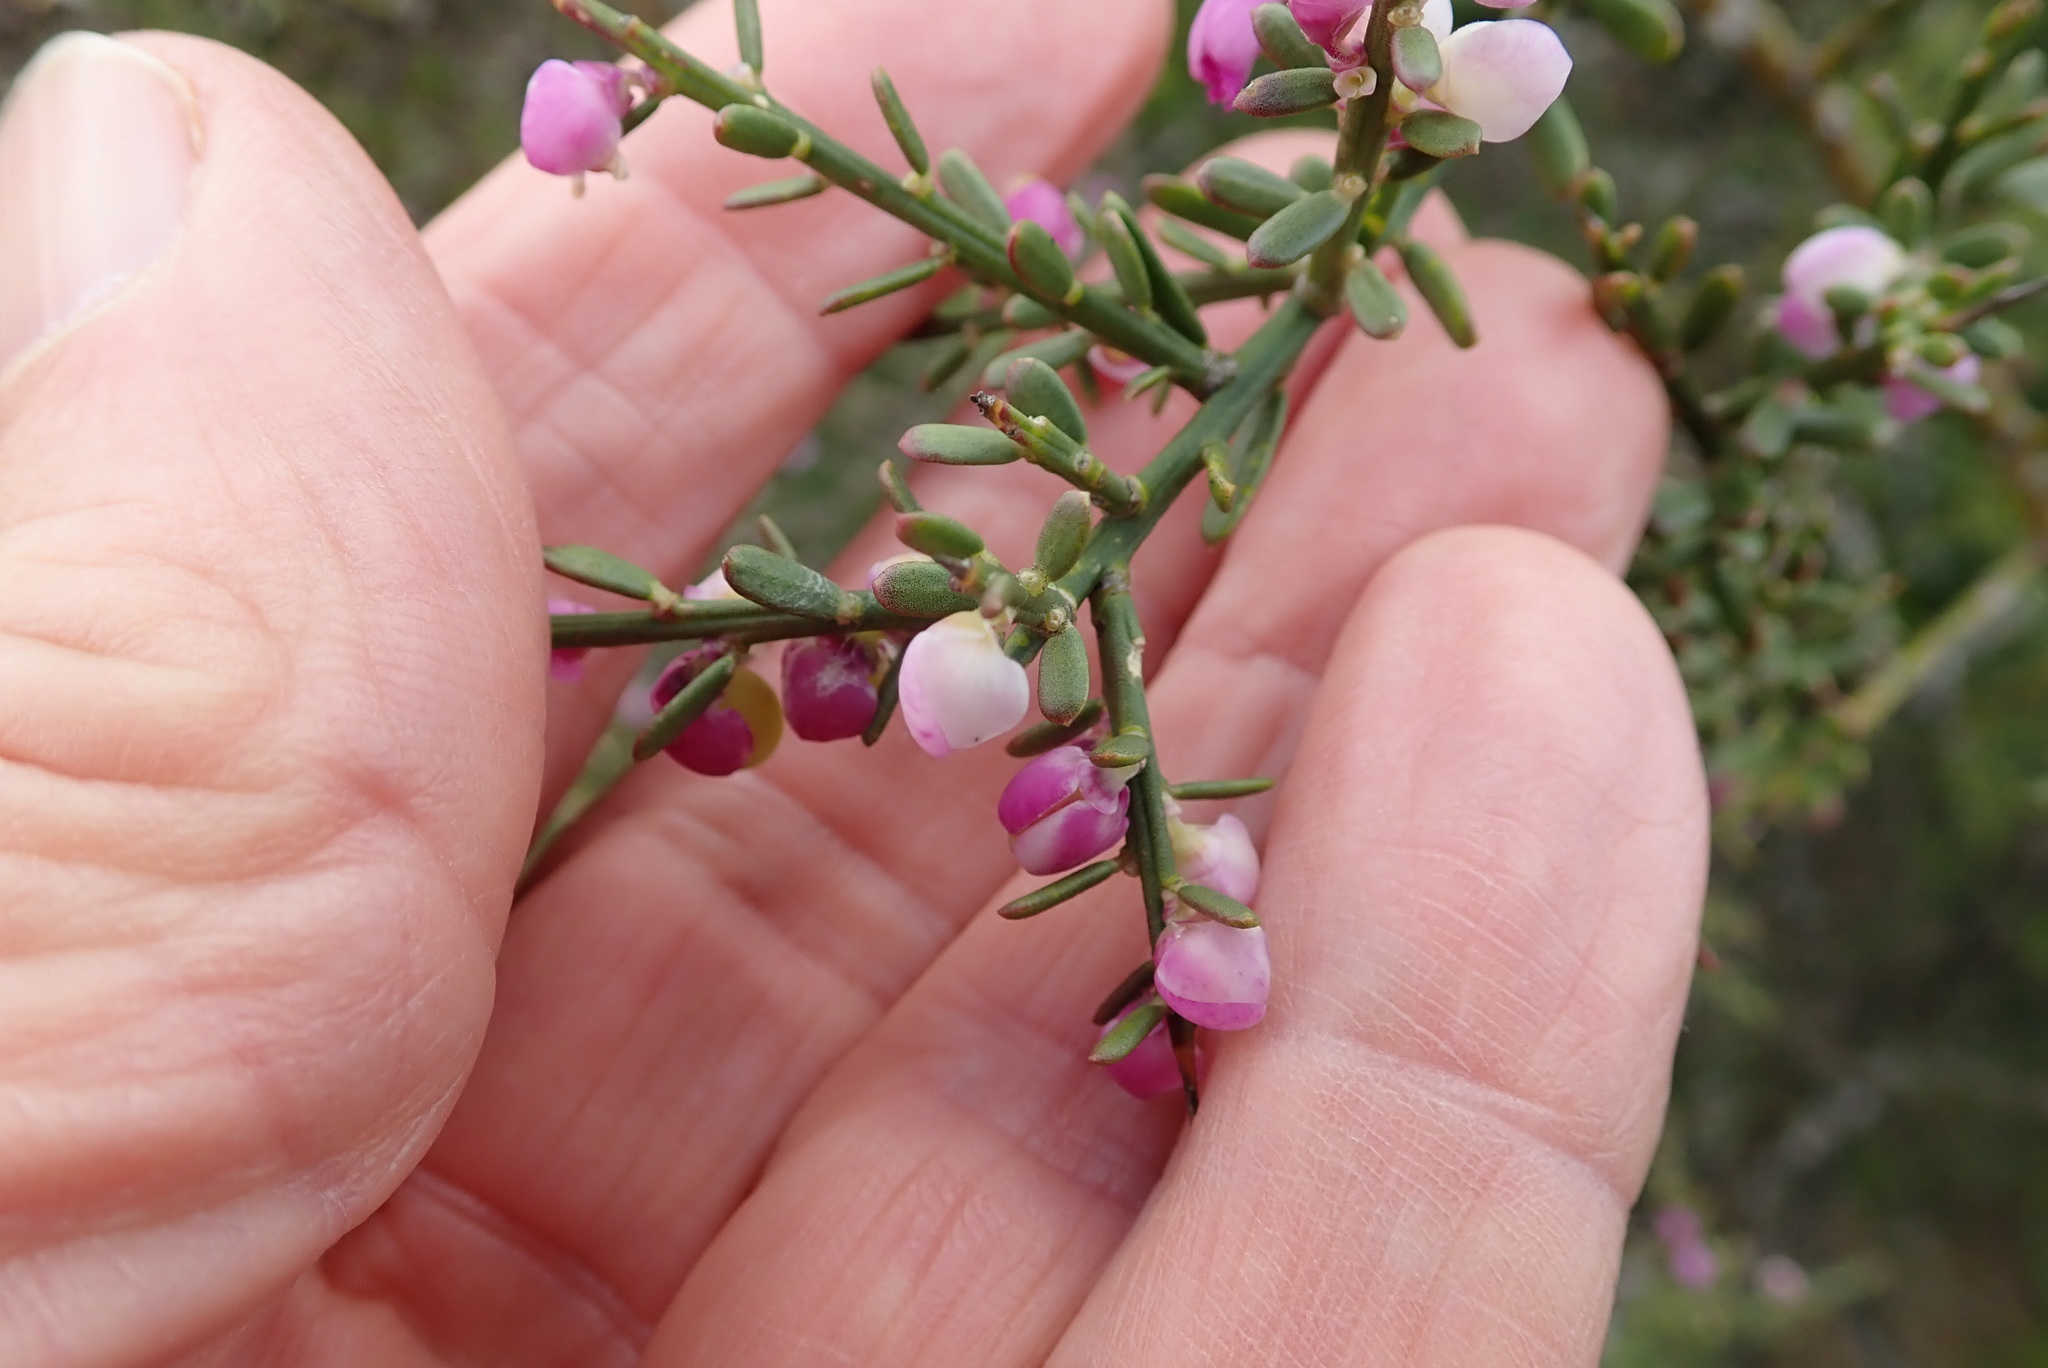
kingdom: Plantae
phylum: Tracheophyta
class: Magnoliopsida
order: Fabales
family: Polygalaceae
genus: Muraltia
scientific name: Muraltia spinosa
